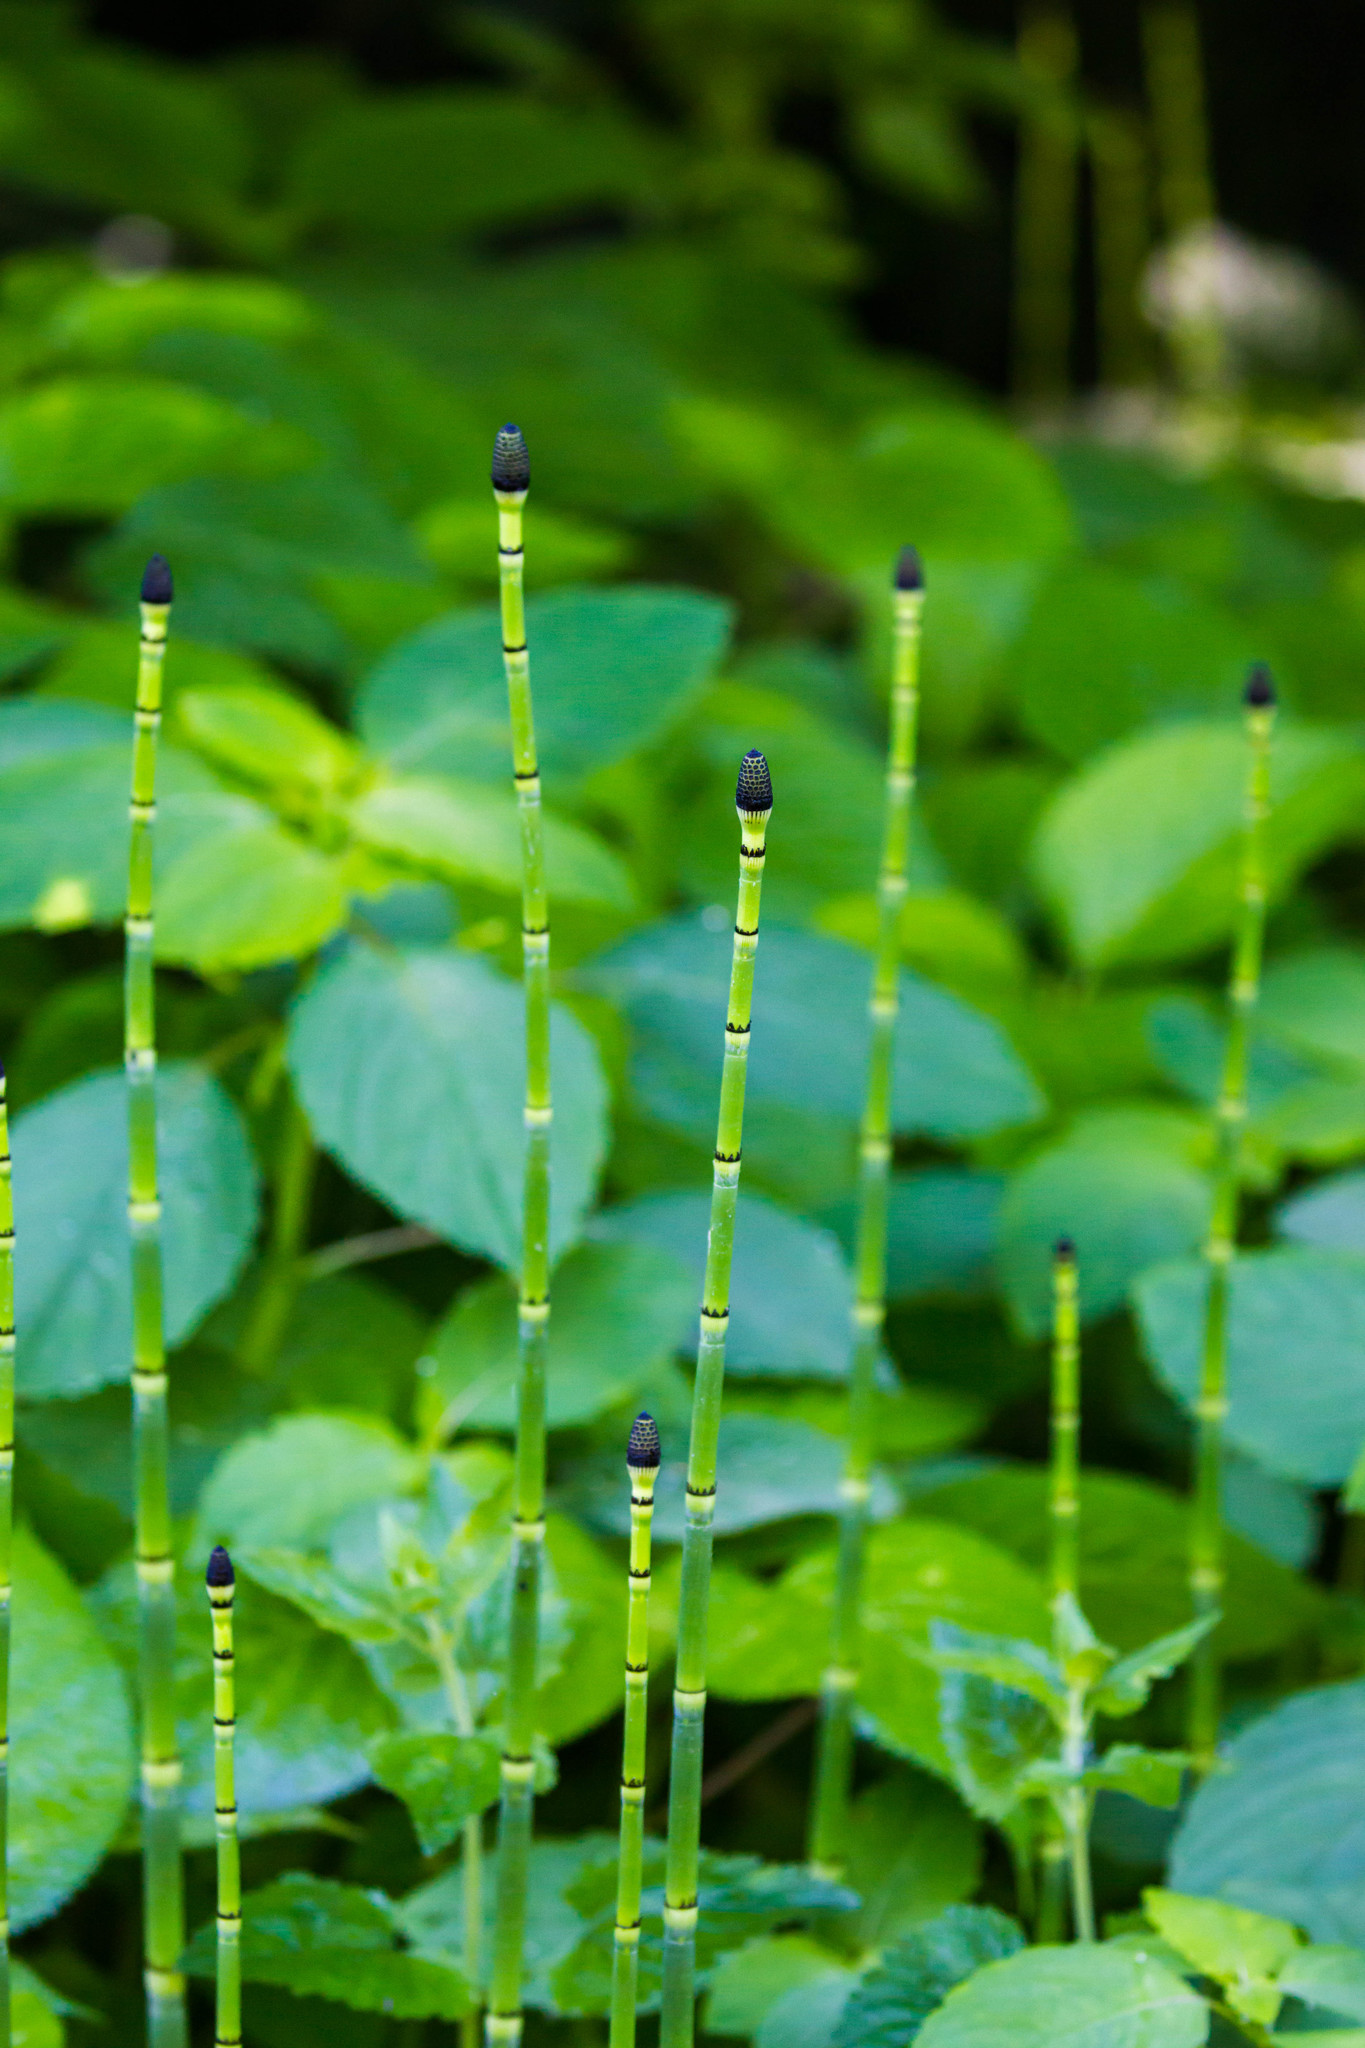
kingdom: Plantae
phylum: Tracheophyta
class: Polypodiopsida
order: Equisetales
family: Equisetaceae
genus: Equisetum
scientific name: Equisetum hyemale
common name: Rough horsetail
